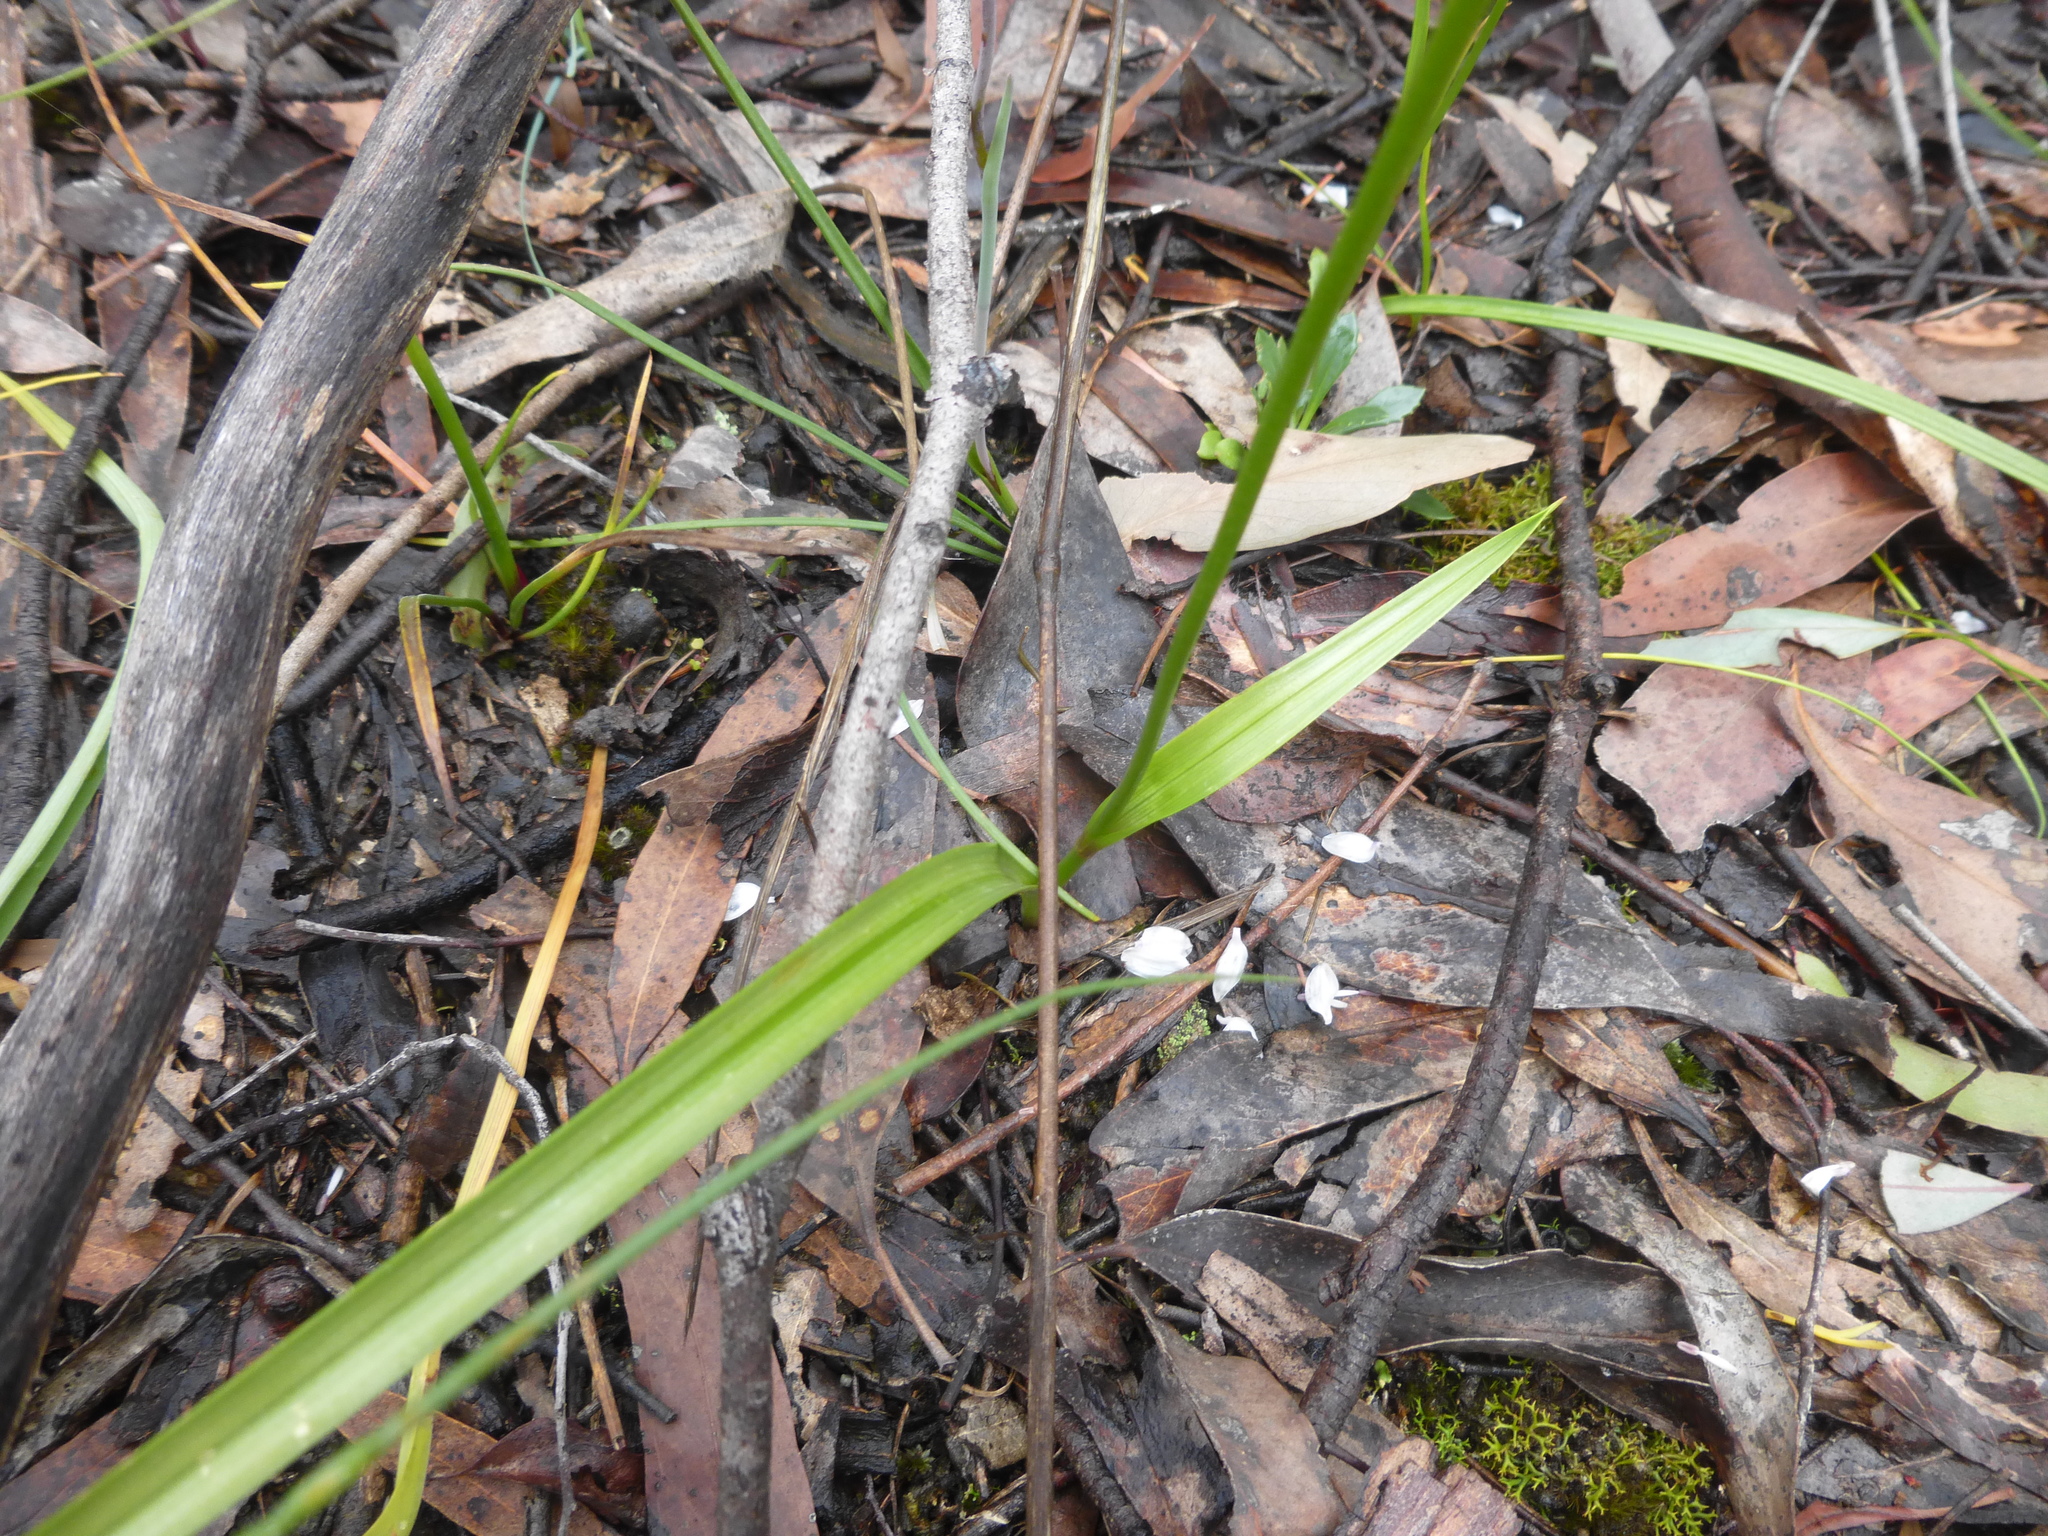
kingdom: Plantae
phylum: Tracheophyta
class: Liliopsida
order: Liliales
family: Colchicaceae
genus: Burchardia
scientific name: Burchardia umbellata
